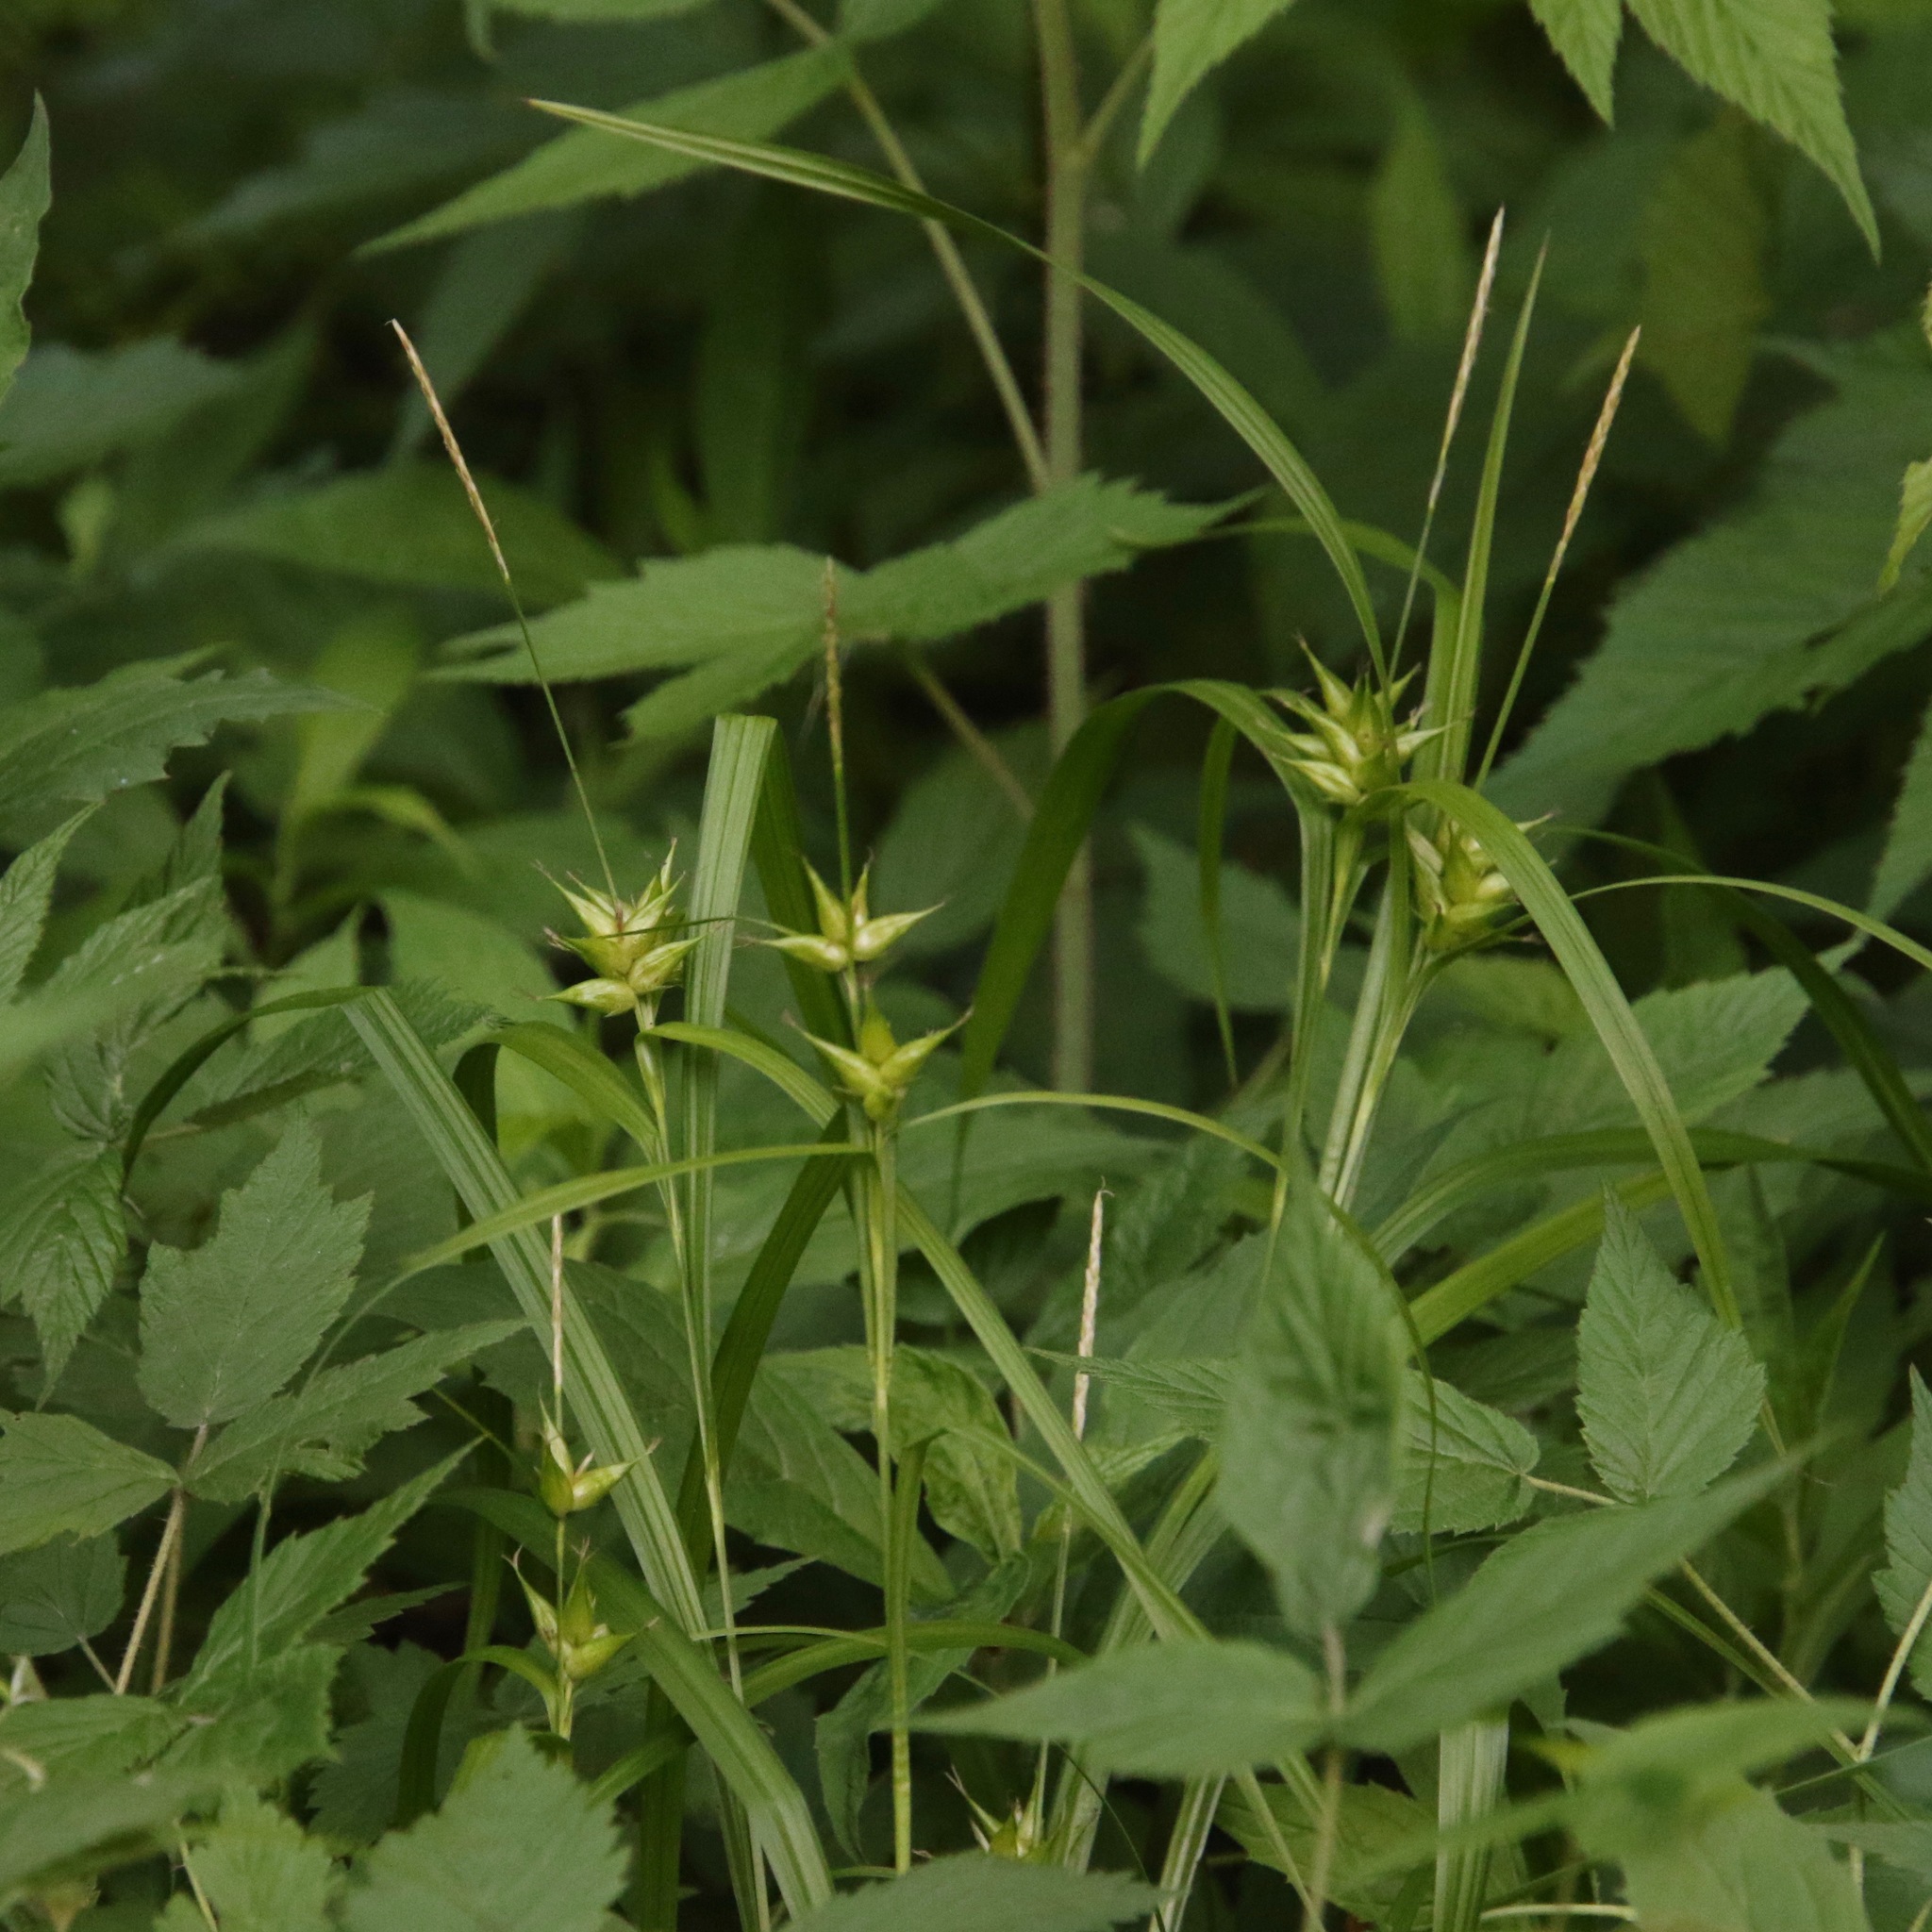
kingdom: Plantae
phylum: Tracheophyta
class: Liliopsida
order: Poales
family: Cyperaceae
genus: Carex
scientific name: Carex intumescens
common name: Greater bladder sedge
